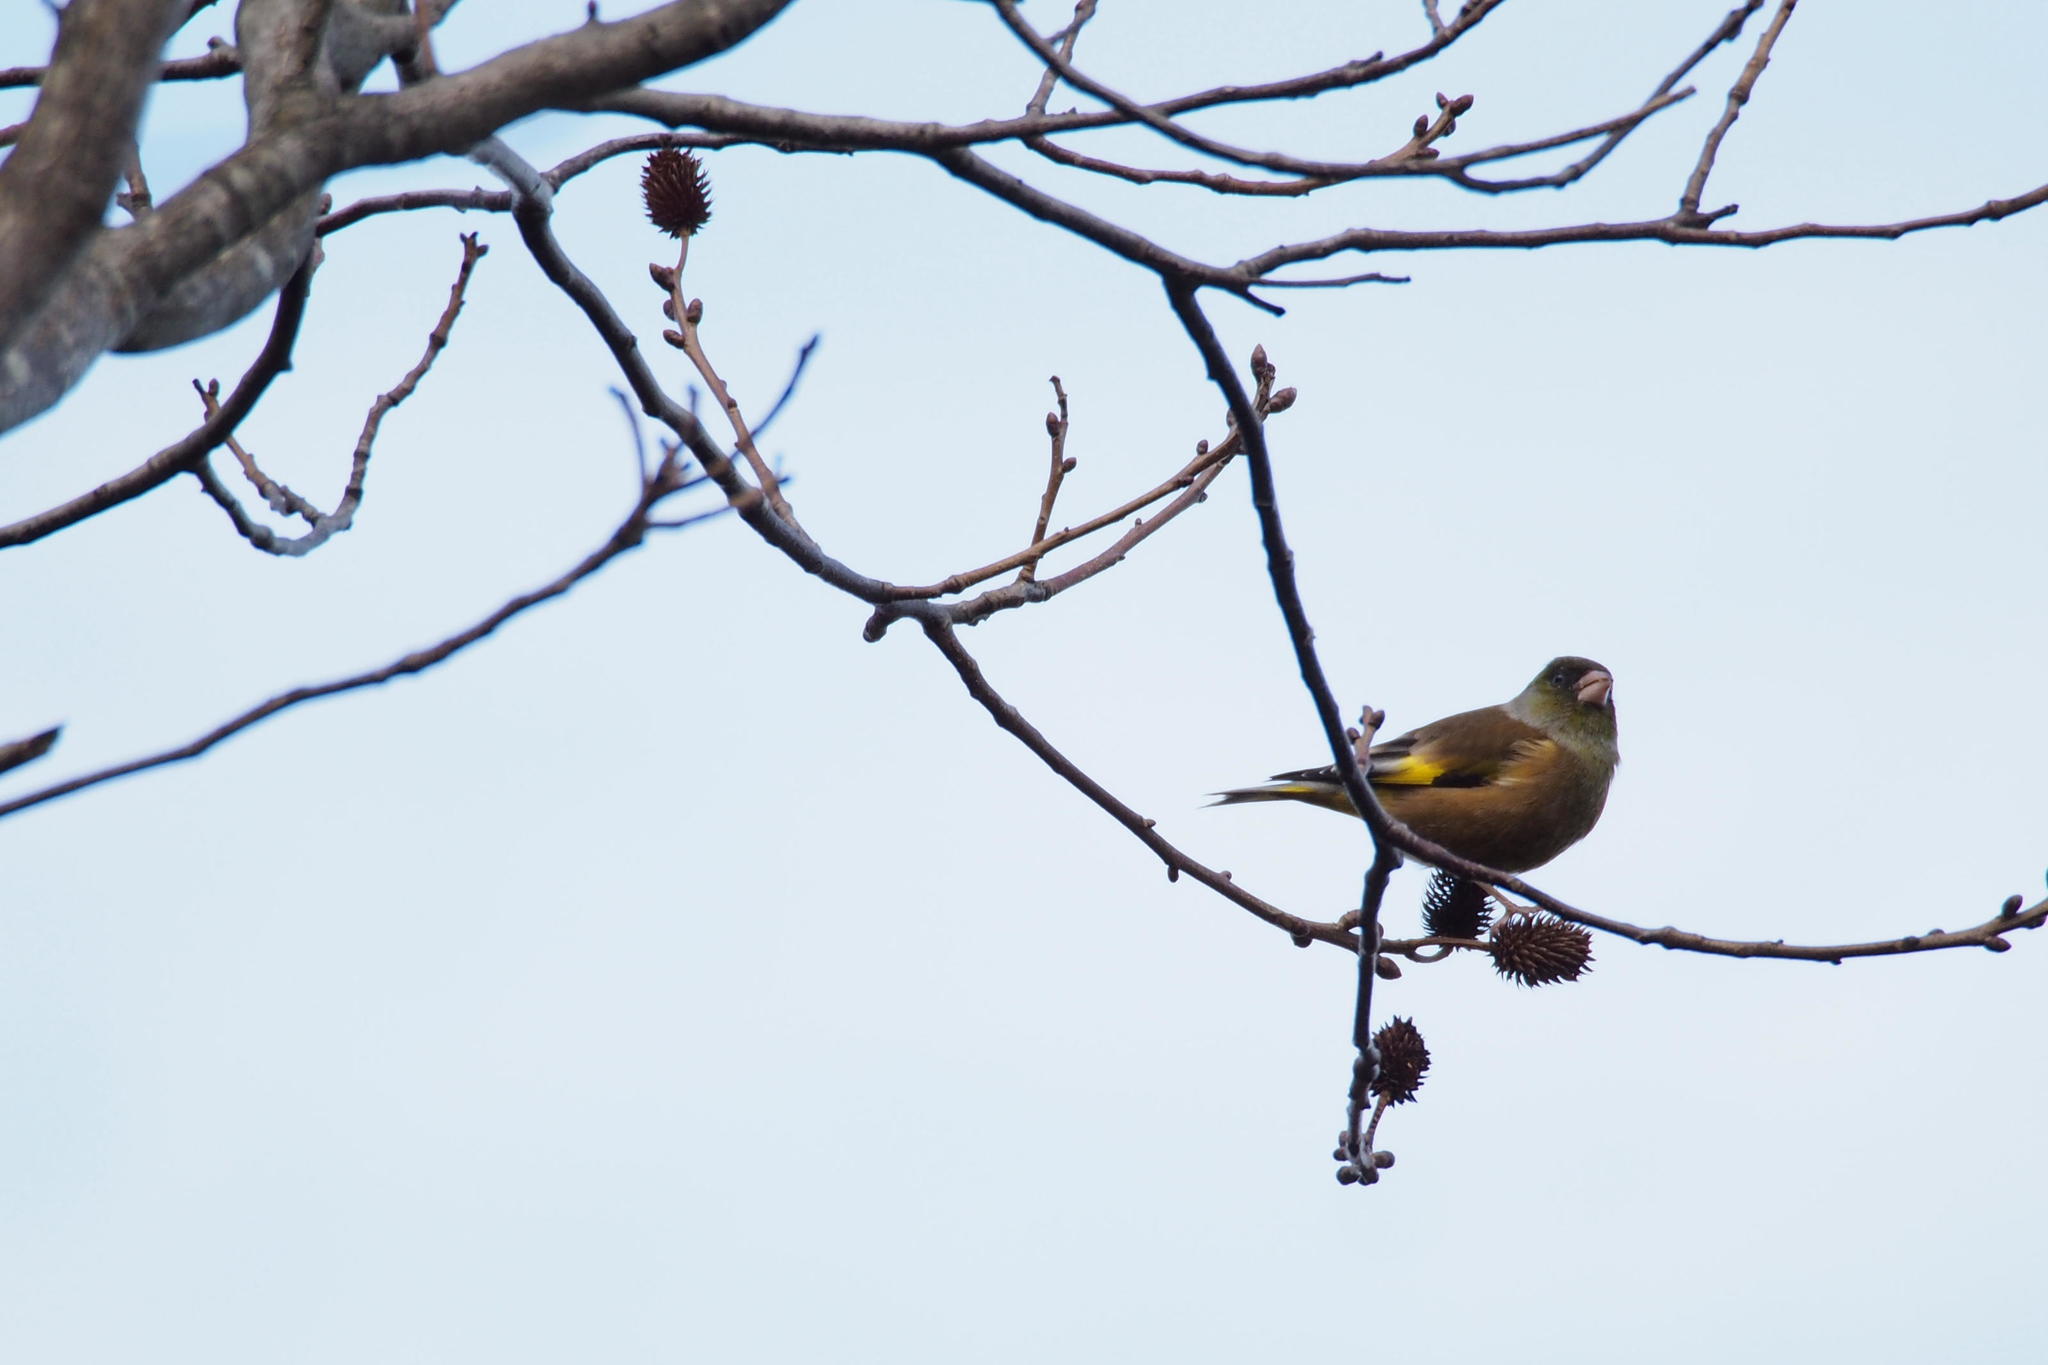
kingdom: Plantae
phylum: Tracheophyta
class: Liliopsida
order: Poales
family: Poaceae
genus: Chloris
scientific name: Chloris sinica
